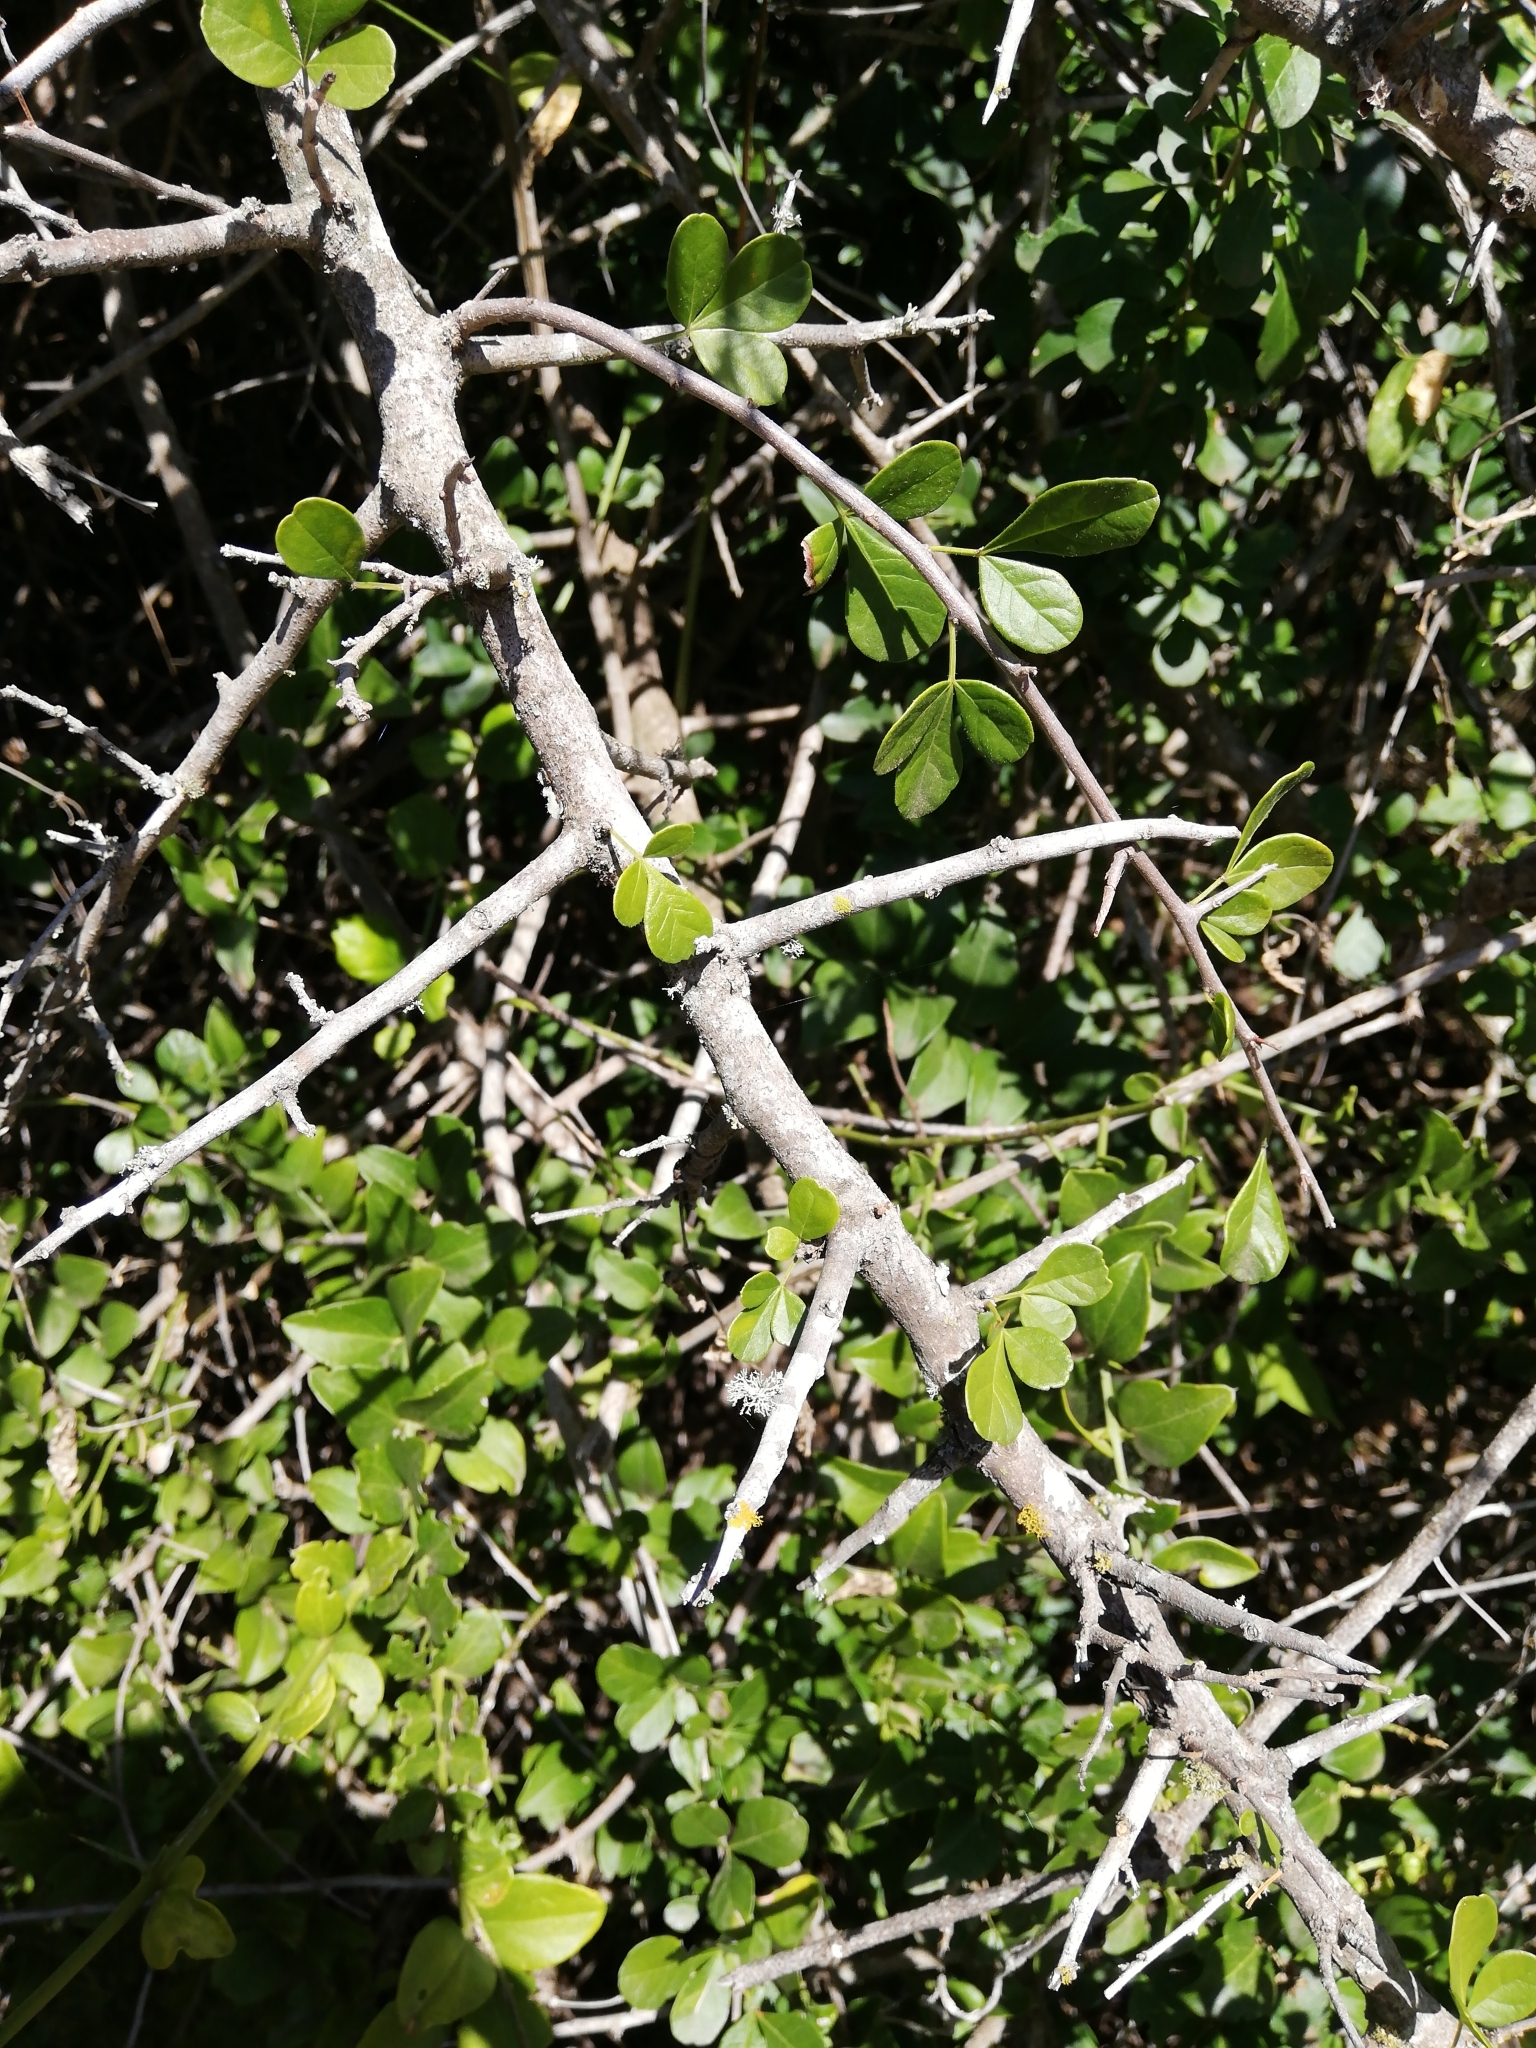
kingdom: Plantae
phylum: Tracheophyta
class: Magnoliopsida
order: Sapindales
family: Anacardiaceae
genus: Searsia
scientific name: Searsia refracta
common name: Thorny crow-berry
